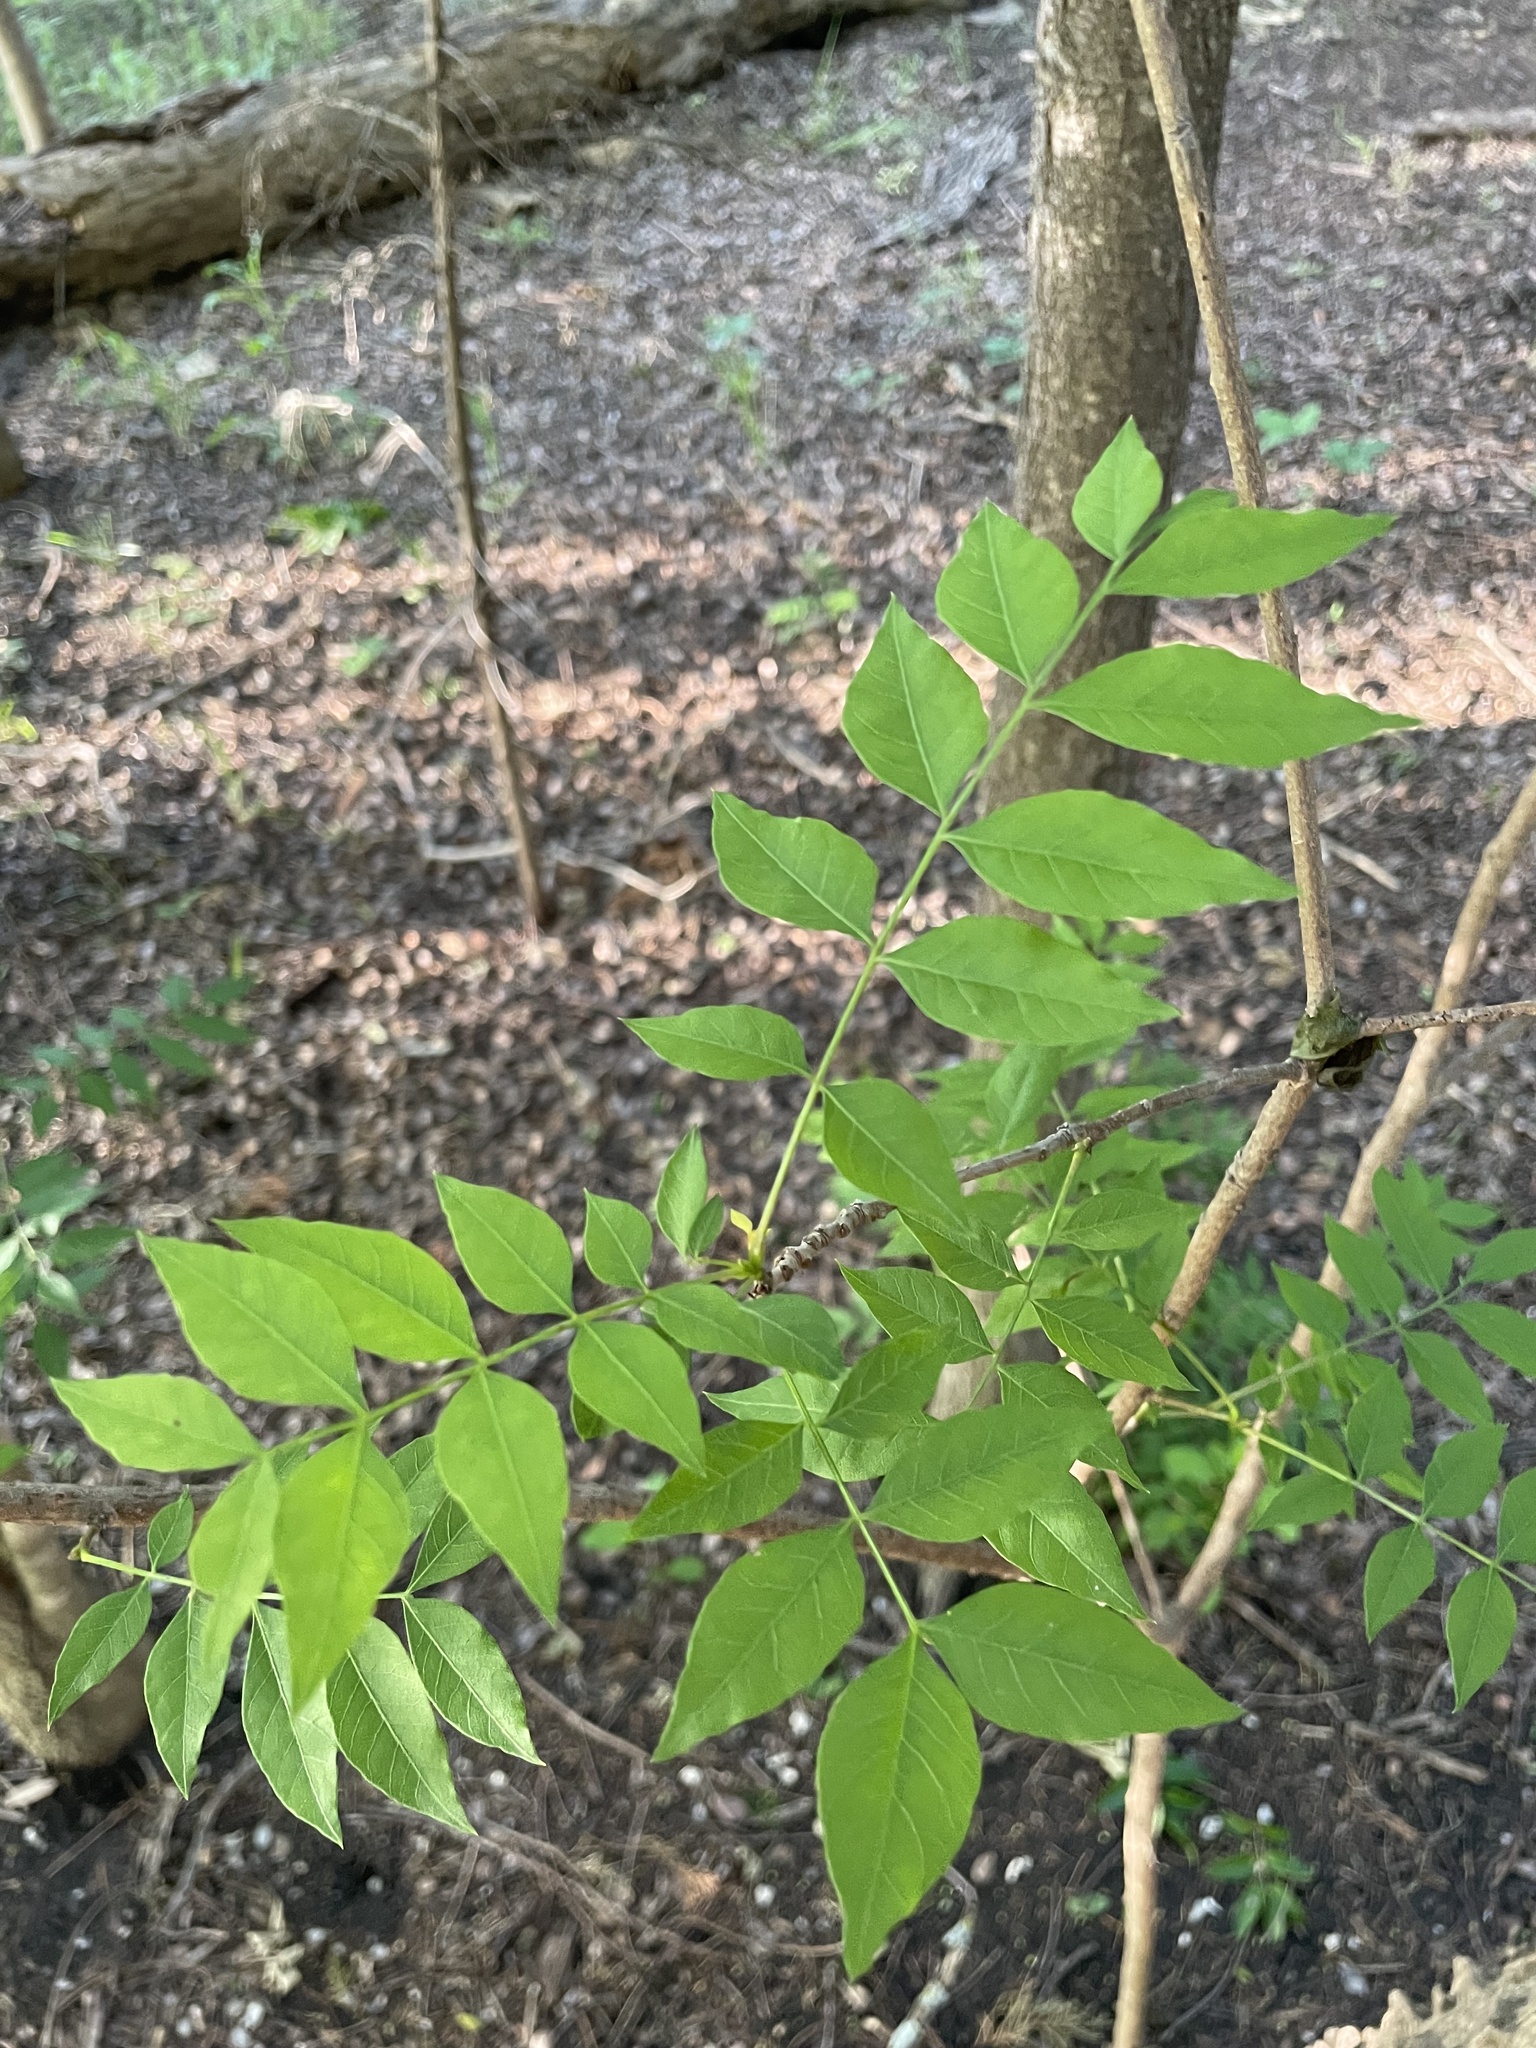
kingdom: Plantae
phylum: Tracheophyta
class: Magnoliopsida
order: Sapindales
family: Rutaceae
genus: Zanthoxylum
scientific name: Zanthoxylum clava-herculis
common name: Hercules'-club
